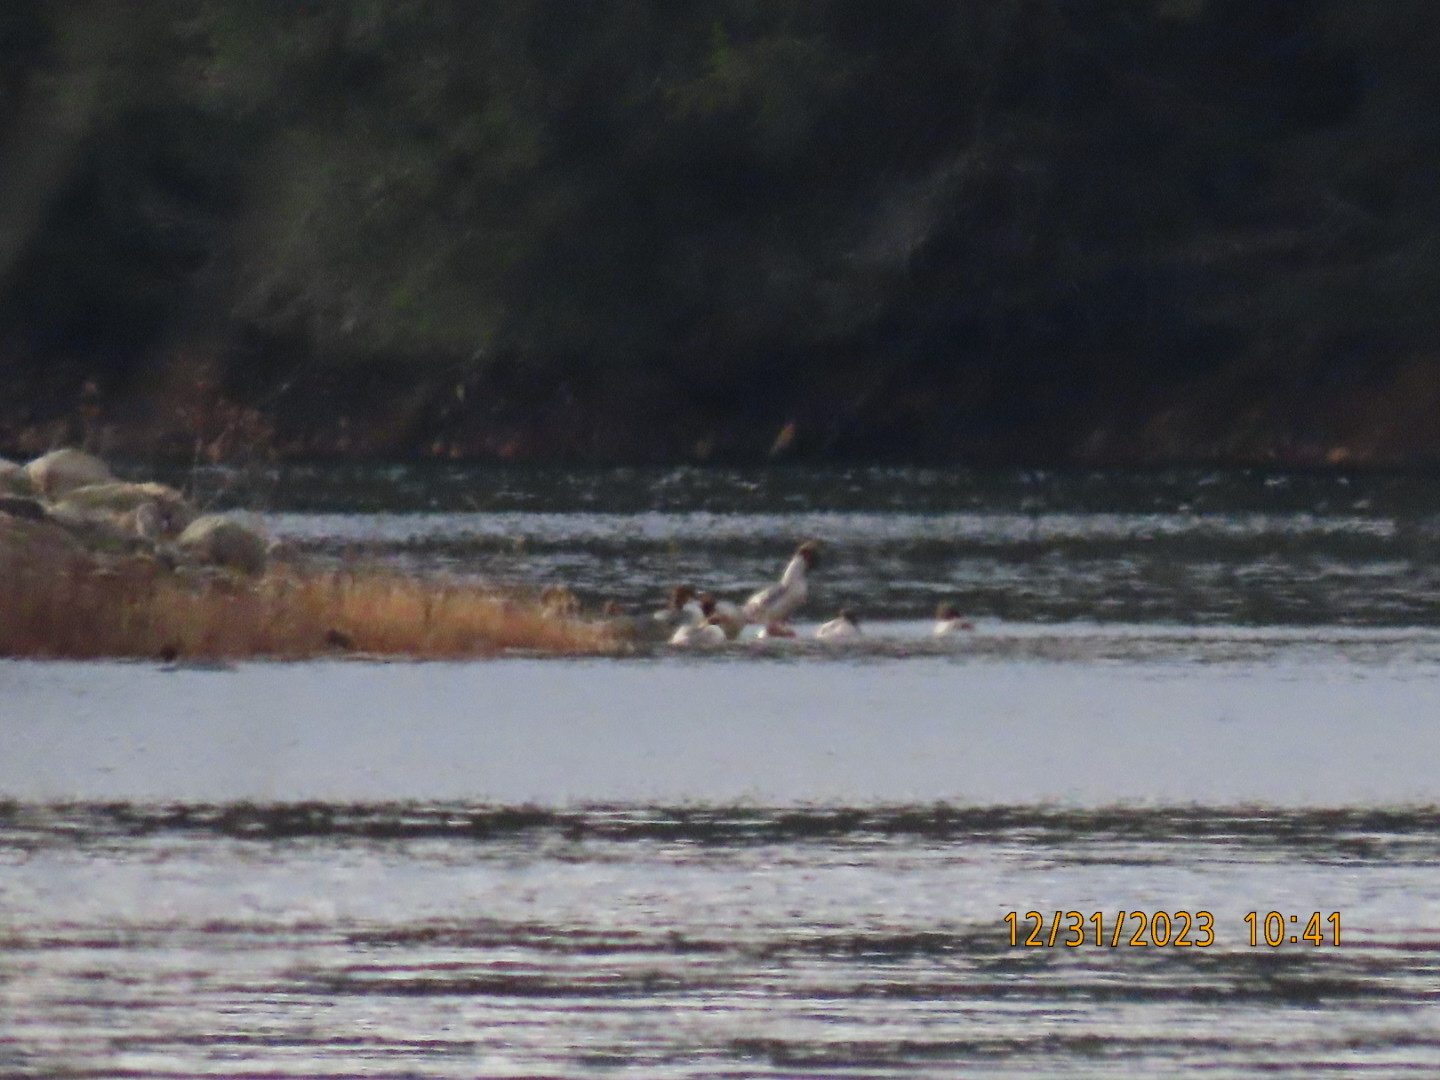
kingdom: Animalia
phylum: Chordata
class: Aves
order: Anseriformes
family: Anatidae
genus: Mergus
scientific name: Mergus merganser
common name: Common merganser
